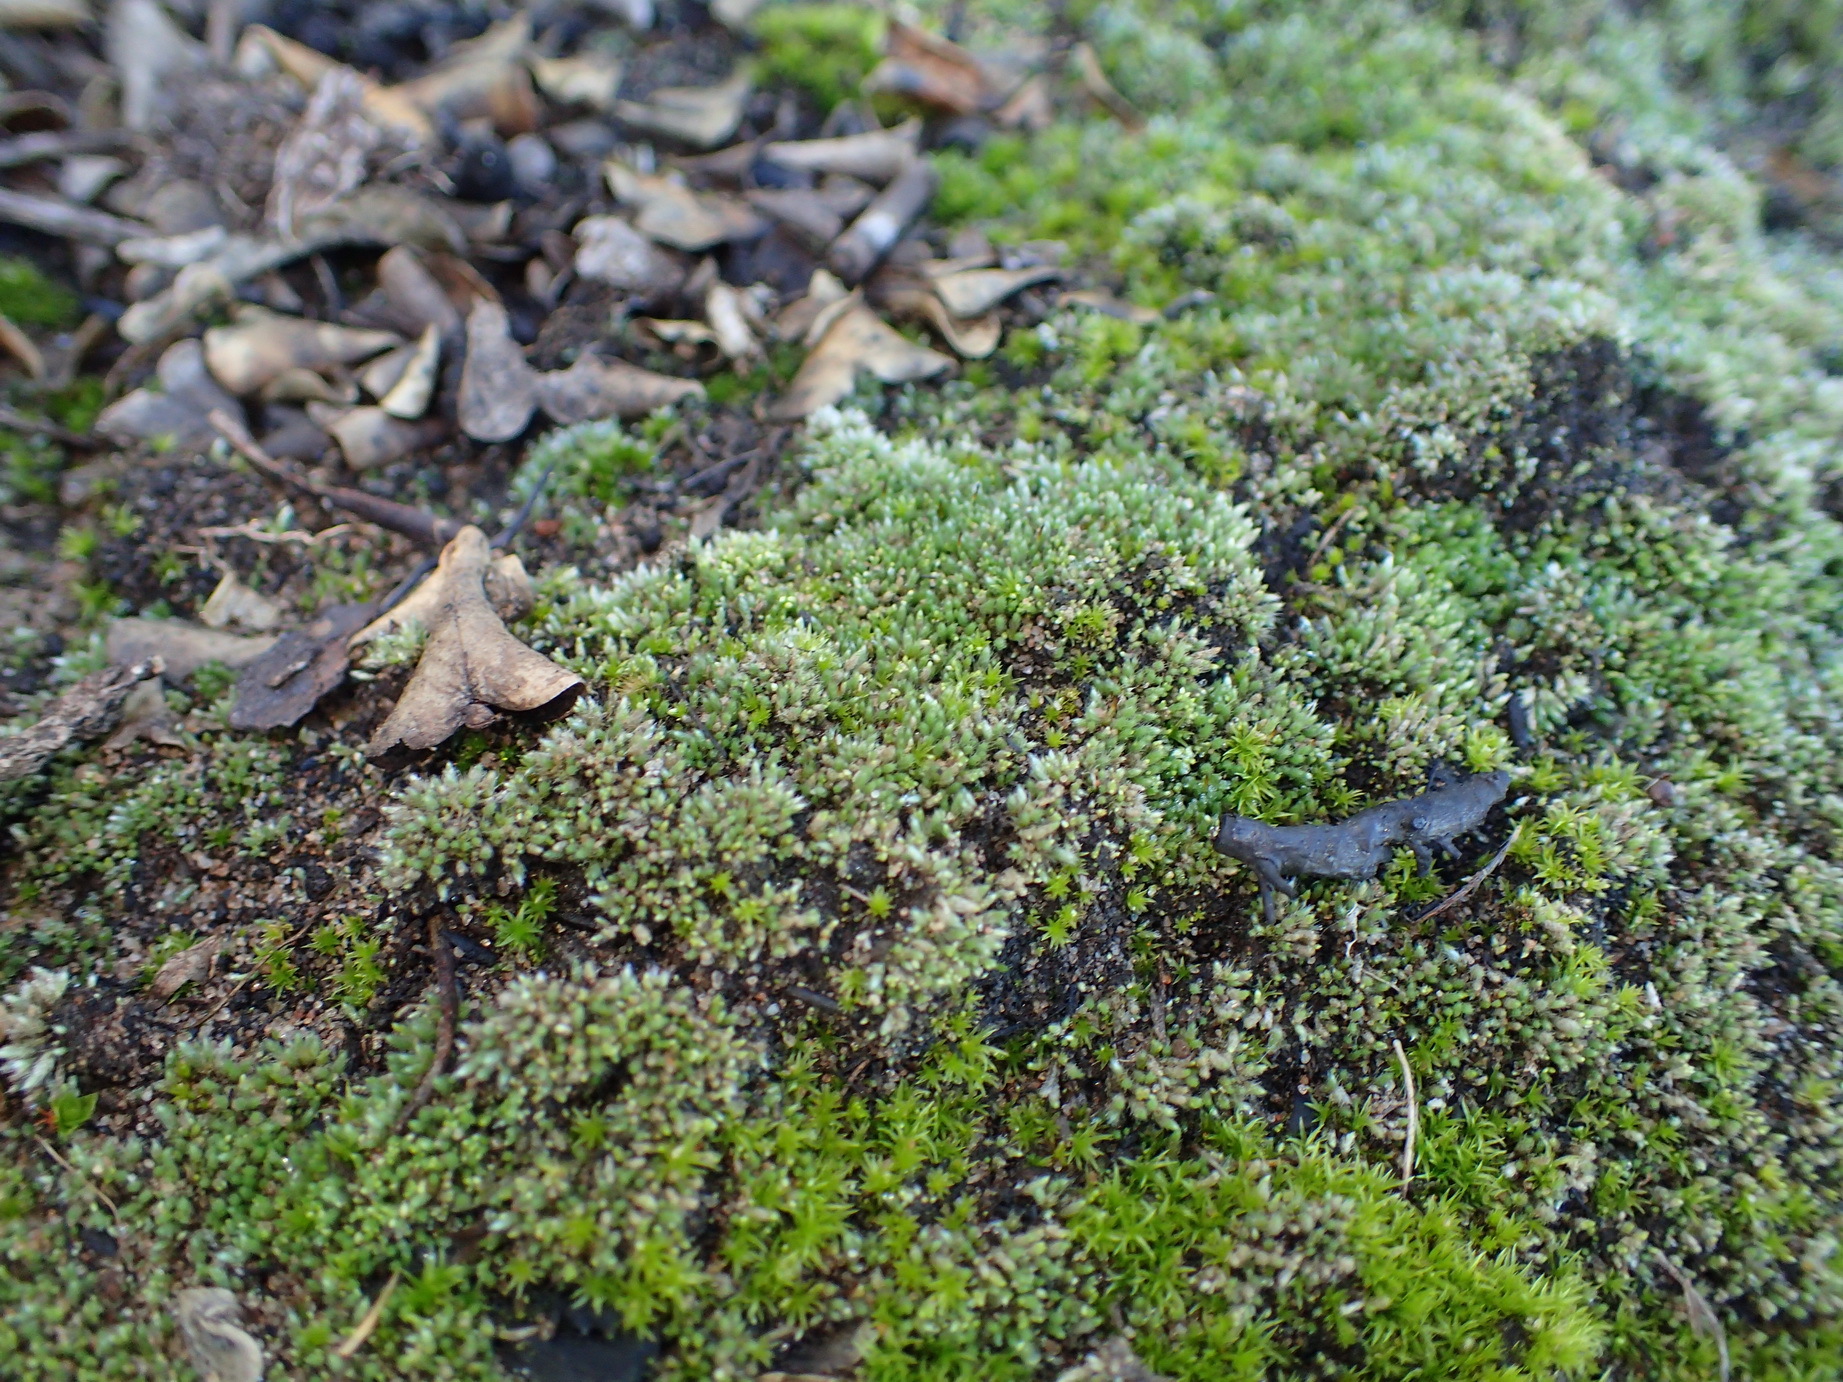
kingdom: Plantae
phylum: Bryophyta
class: Bryopsida
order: Bryales
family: Bryaceae
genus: Bryum
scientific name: Bryum argenteum
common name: Silver-moss
